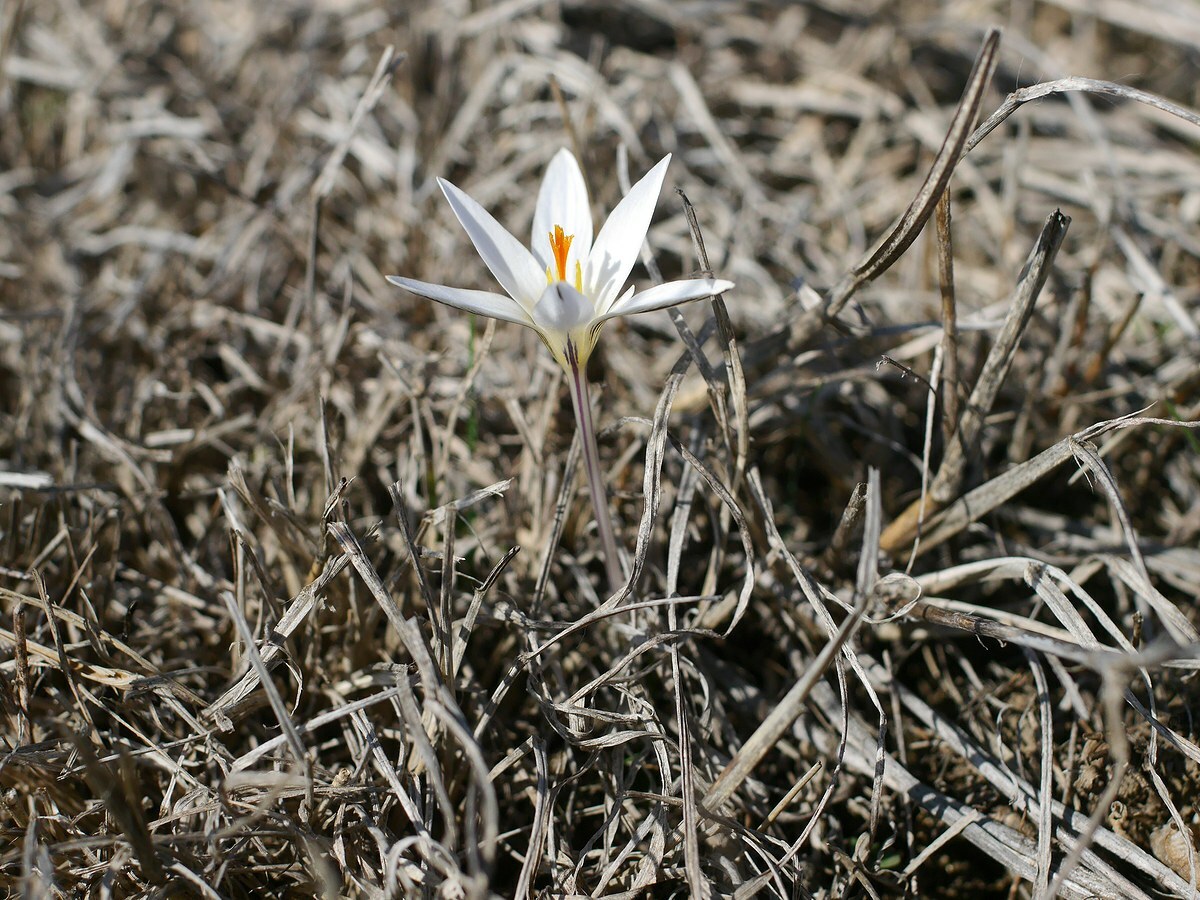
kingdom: Plantae
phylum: Tracheophyta
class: Liliopsida
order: Asparagales
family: Iridaceae
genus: Crocus
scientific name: Crocus reticulatus
